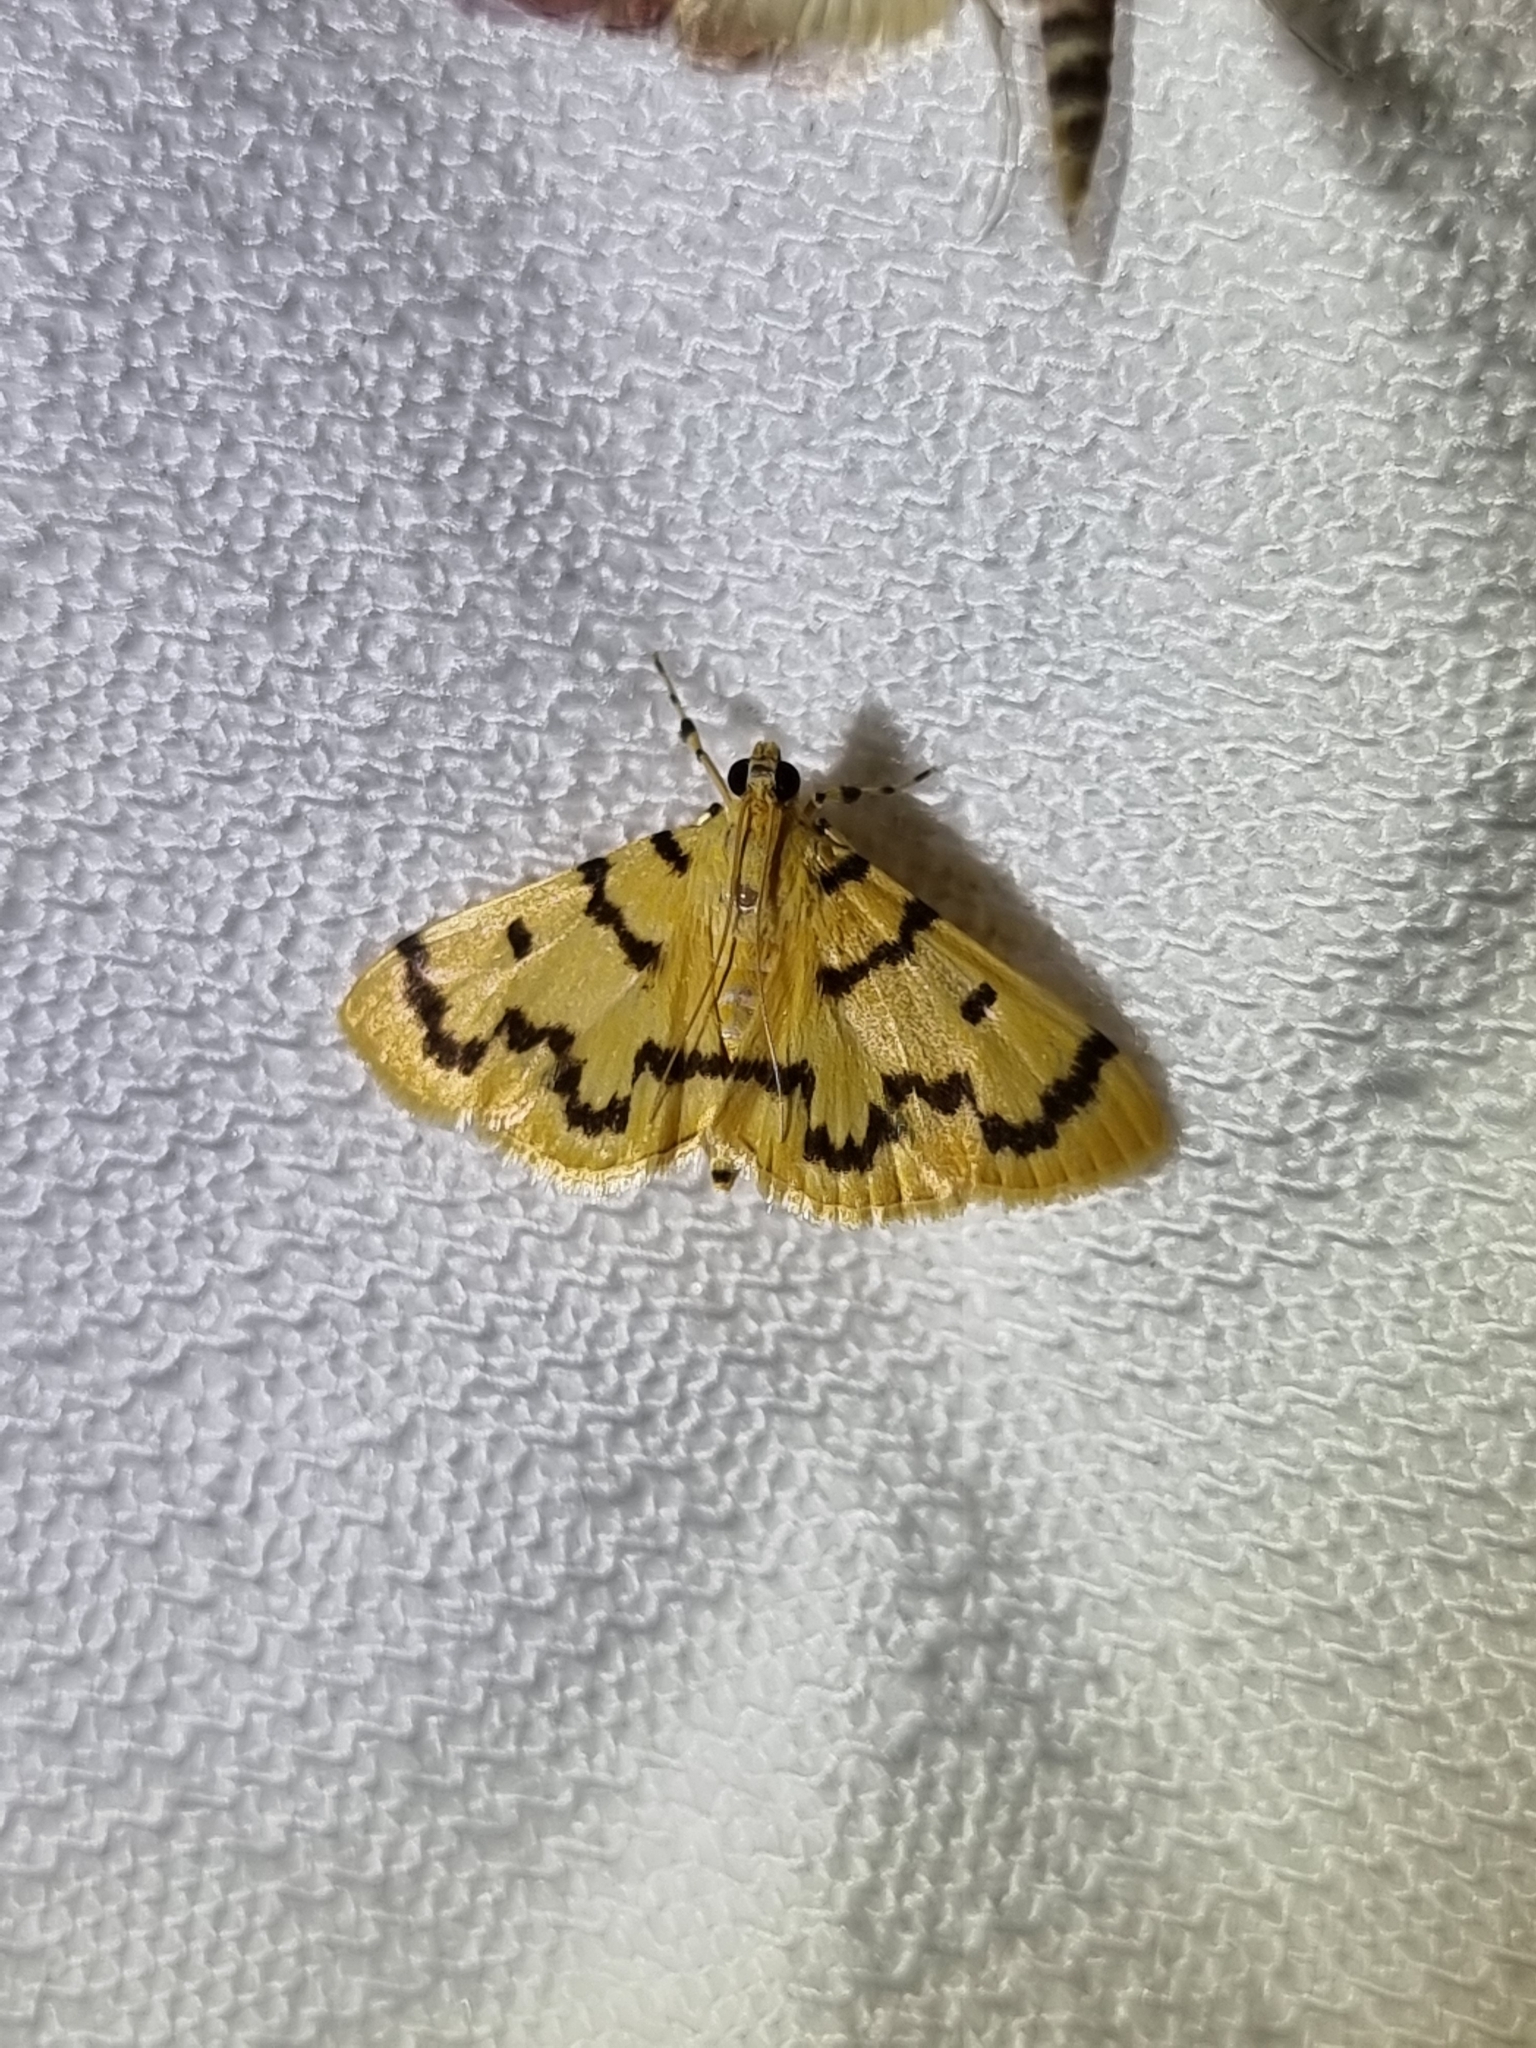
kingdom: Animalia
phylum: Arthropoda
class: Insecta
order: Lepidoptera
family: Crambidae
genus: Dichocrocis
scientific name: Dichocrocis clytusalis
